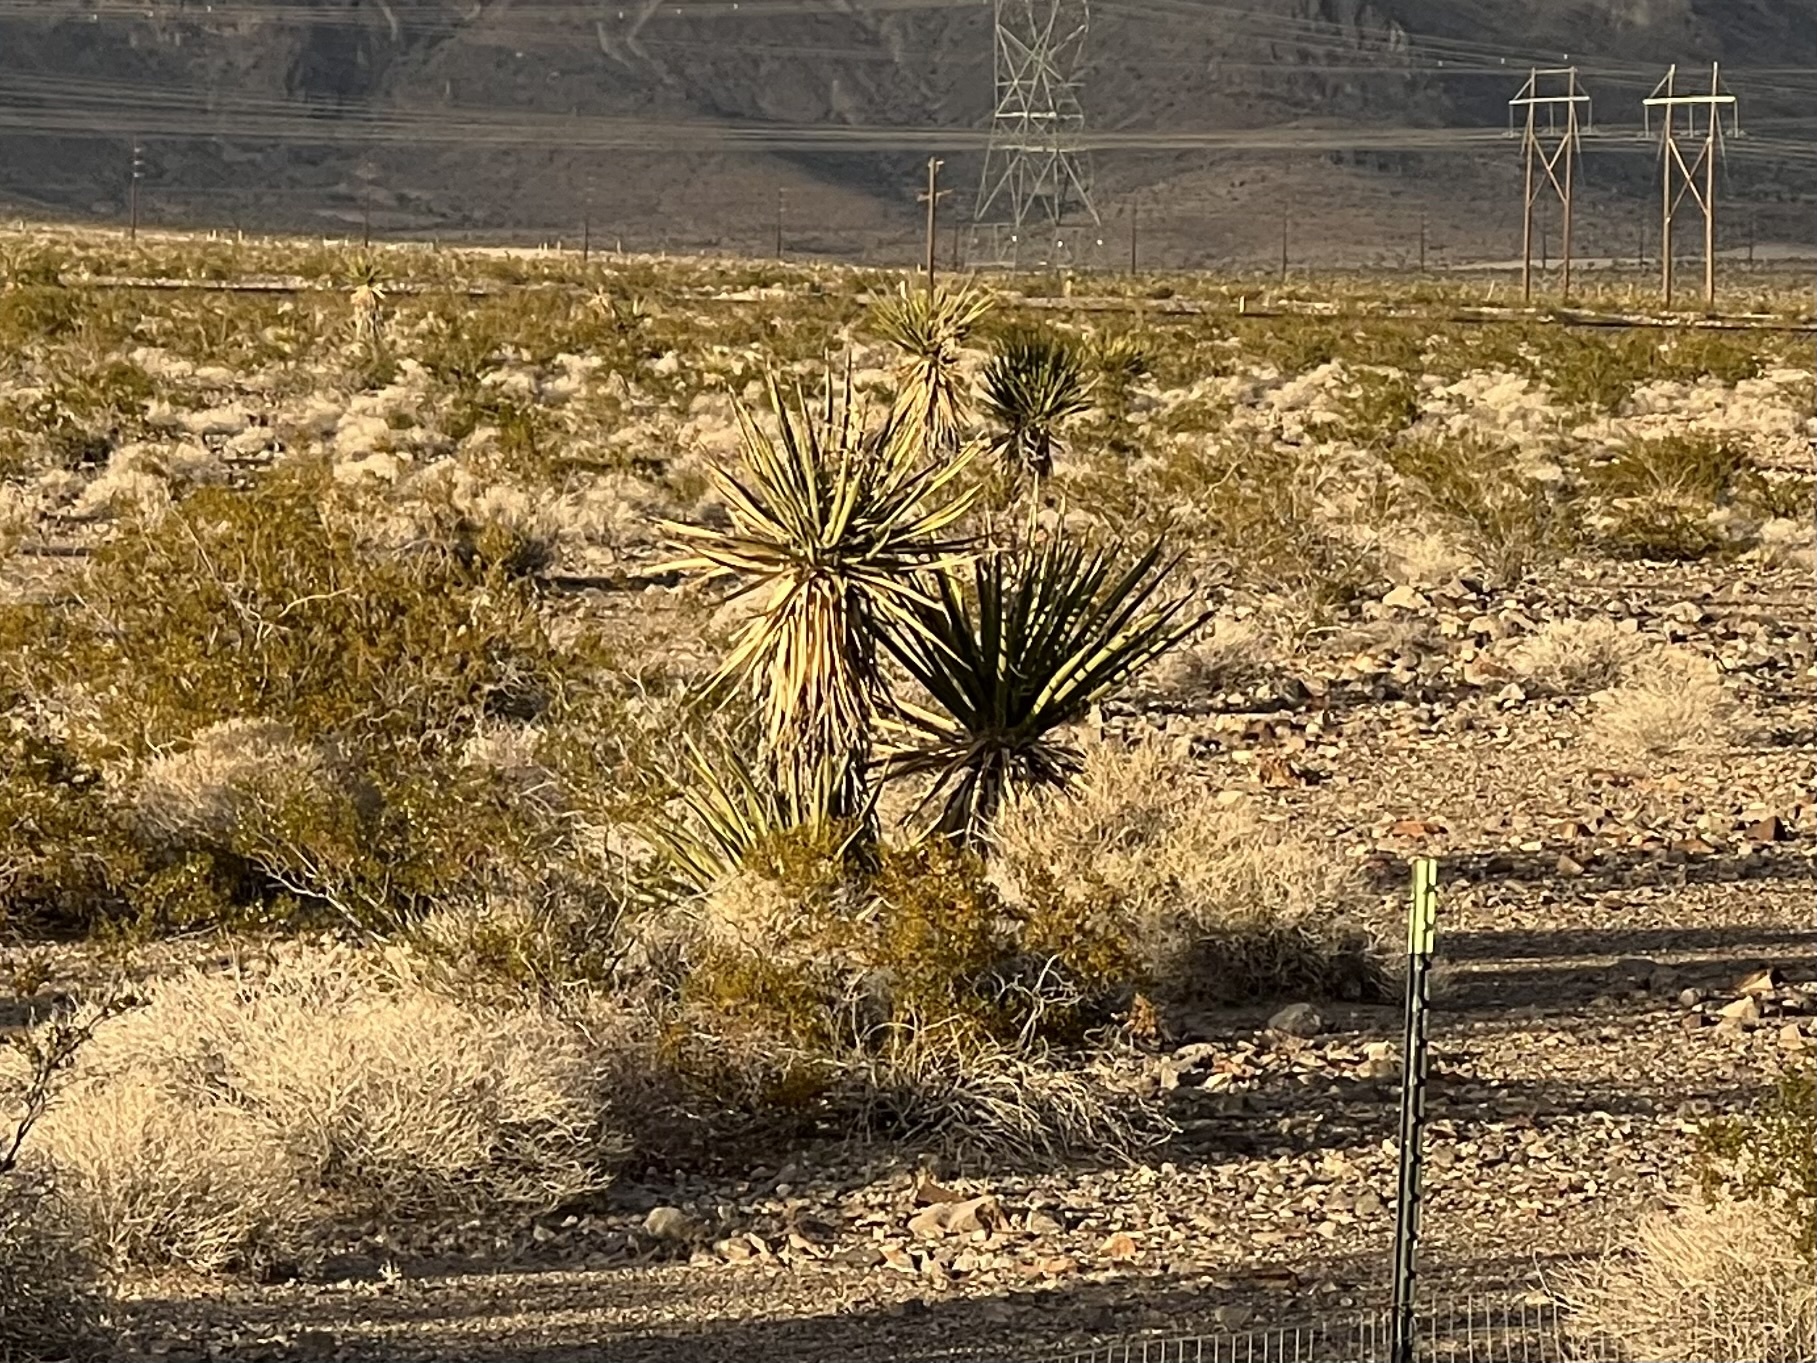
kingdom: Plantae
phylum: Tracheophyta
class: Liliopsida
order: Asparagales
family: Asparagaceae
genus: Yucca
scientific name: Yucca schidigera
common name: Mojave yucca
